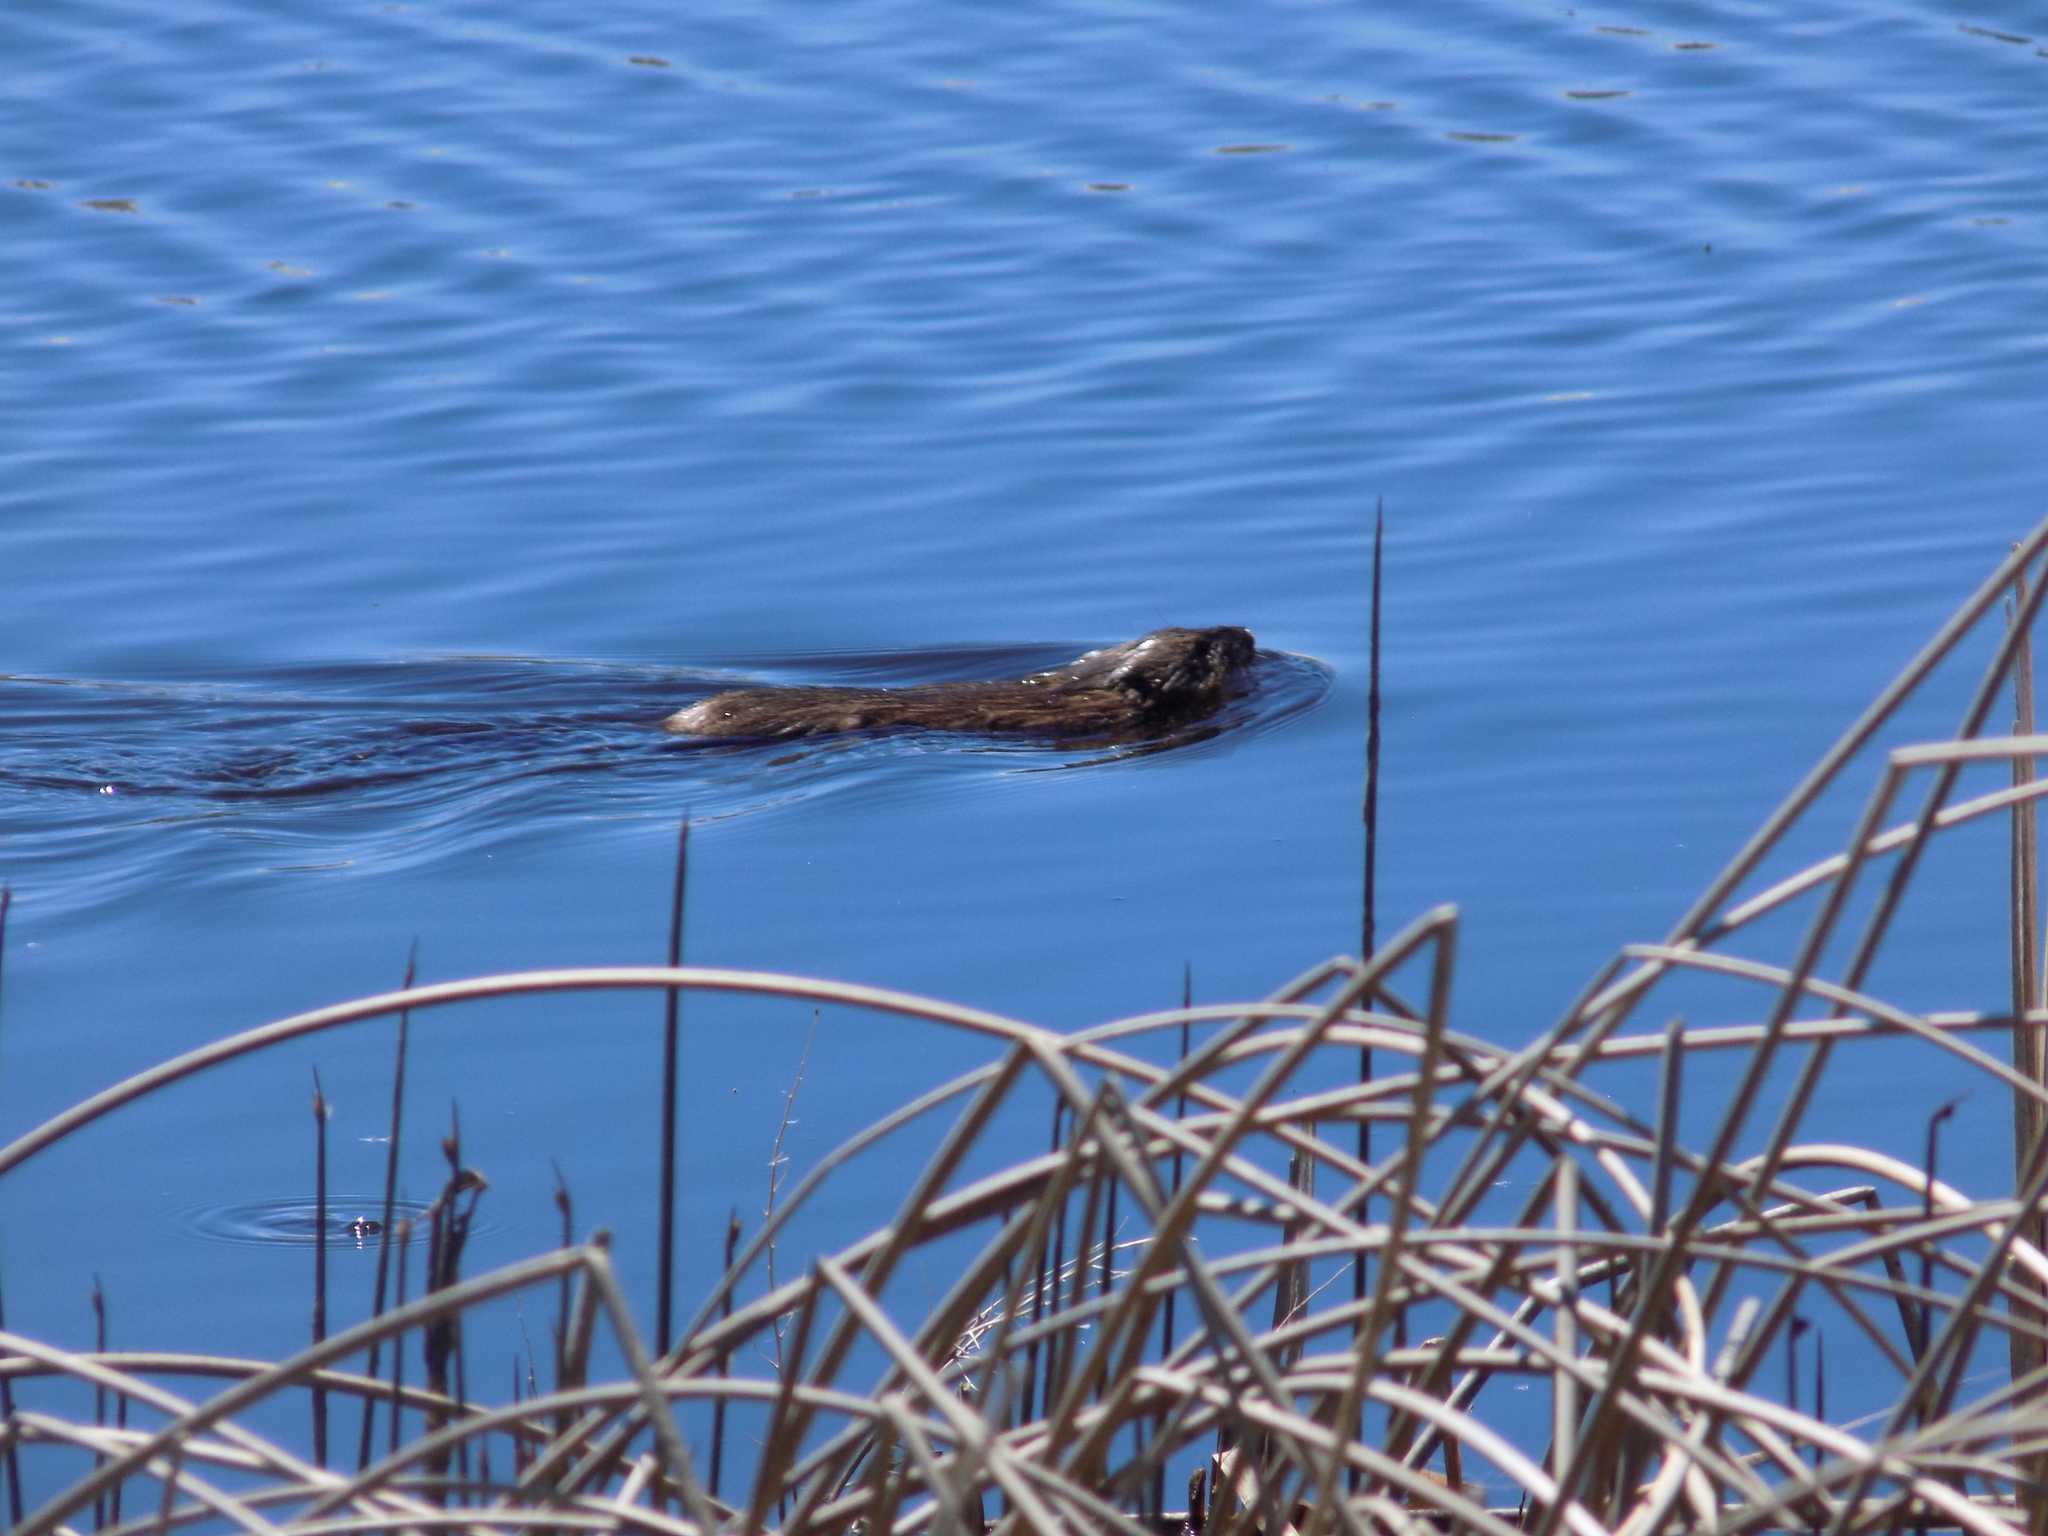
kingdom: Animalia
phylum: Chordata
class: Mammalia
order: Rodentia
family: Cricetidae
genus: Ondatra
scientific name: Ondatra zibethicus
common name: Muskrat
